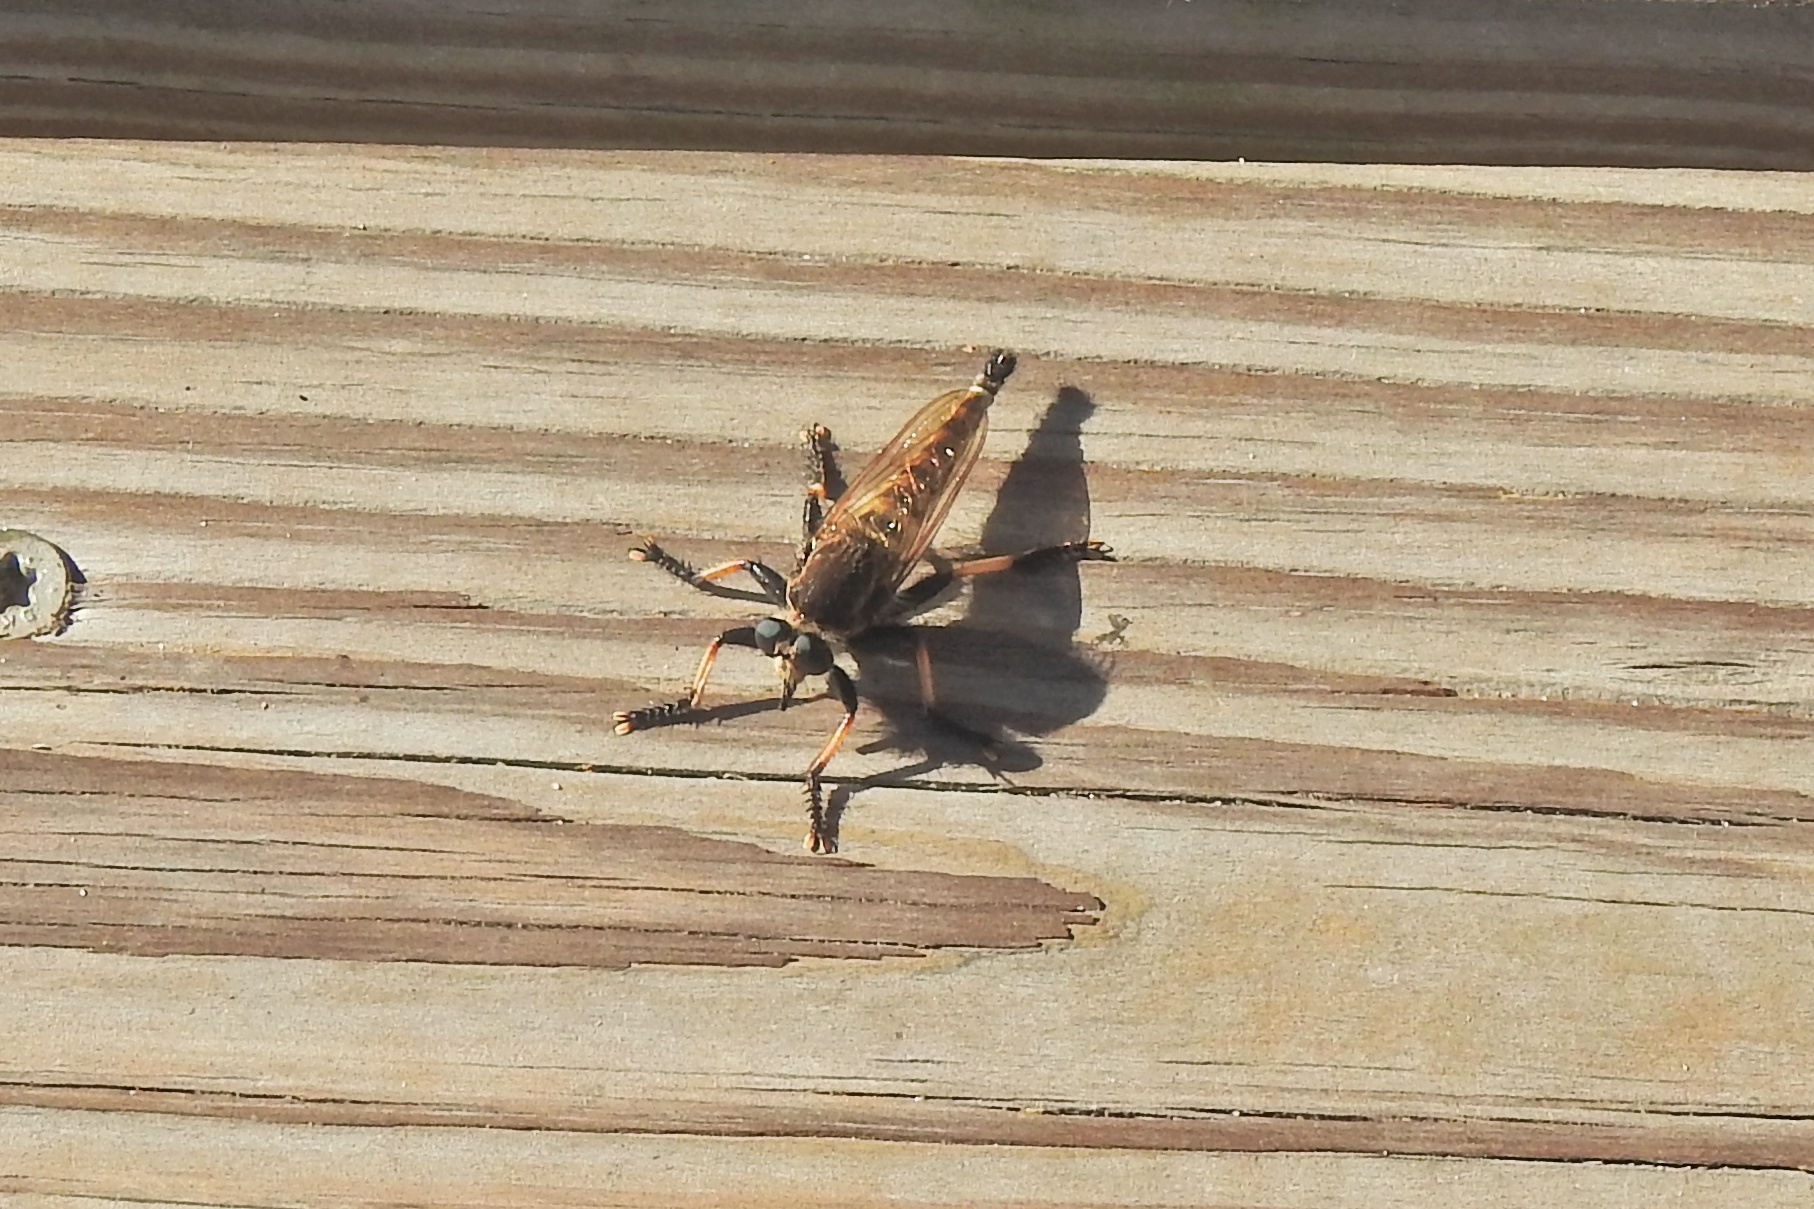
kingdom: Animalia
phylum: Arthropoda
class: Insecta
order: Diptera
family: Asilidae
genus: Promachus
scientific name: Promachus rufipes
